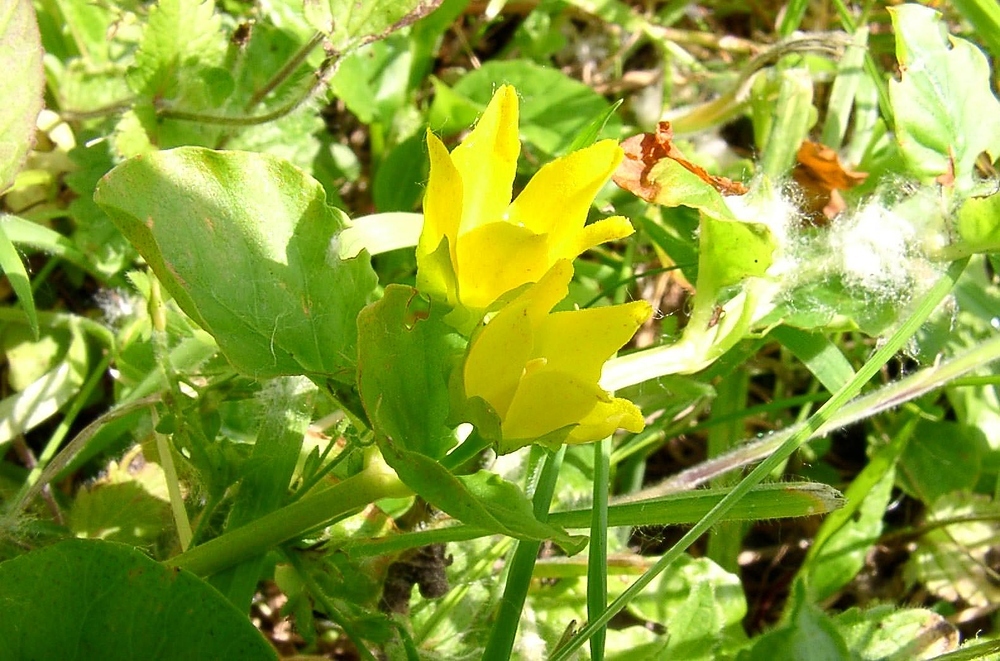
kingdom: Plantae
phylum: Tracheophyta
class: Magnoliopsida
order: Ericales
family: Primulaceae
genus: Lysimachia
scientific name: Lysimachia nummularia
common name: Moneywort
